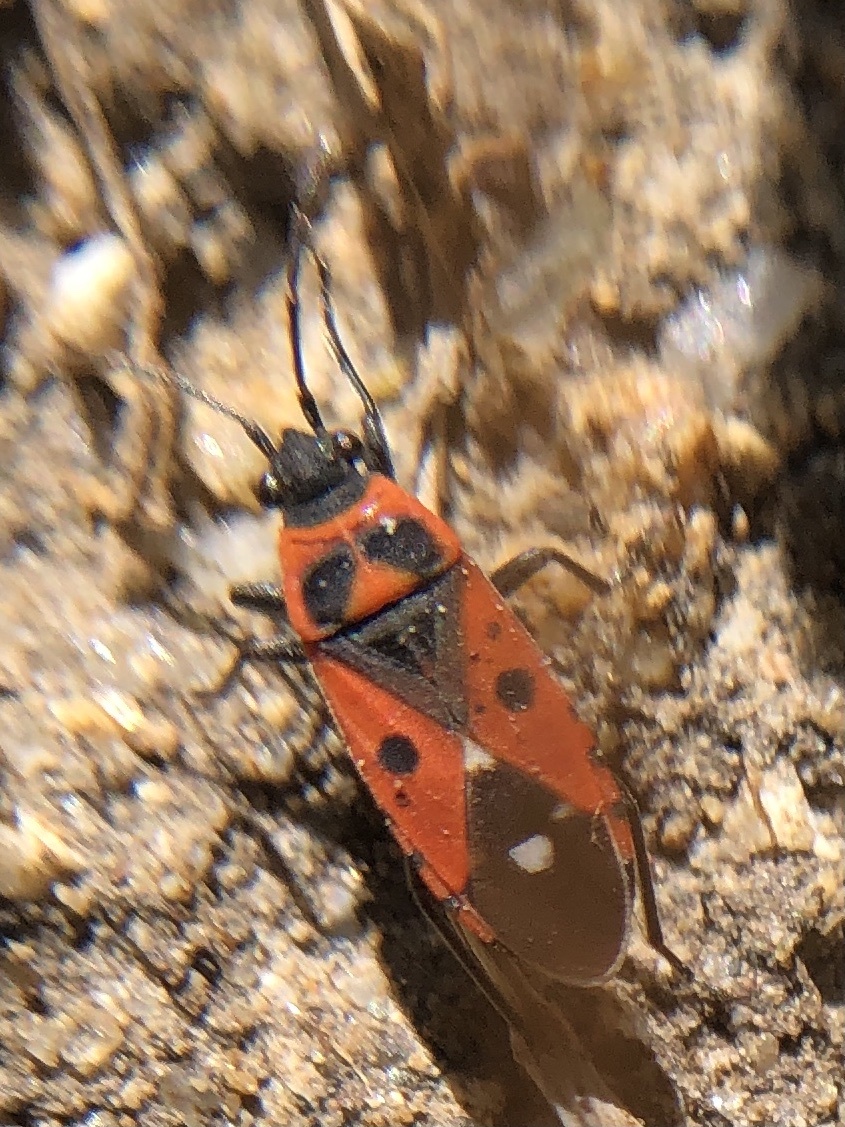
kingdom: Animalia
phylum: Arthropoda
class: Insecta
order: Hemiptera
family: Lygaeidae
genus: Melanocoryphus
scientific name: Melanocoryphus albomaculatus
